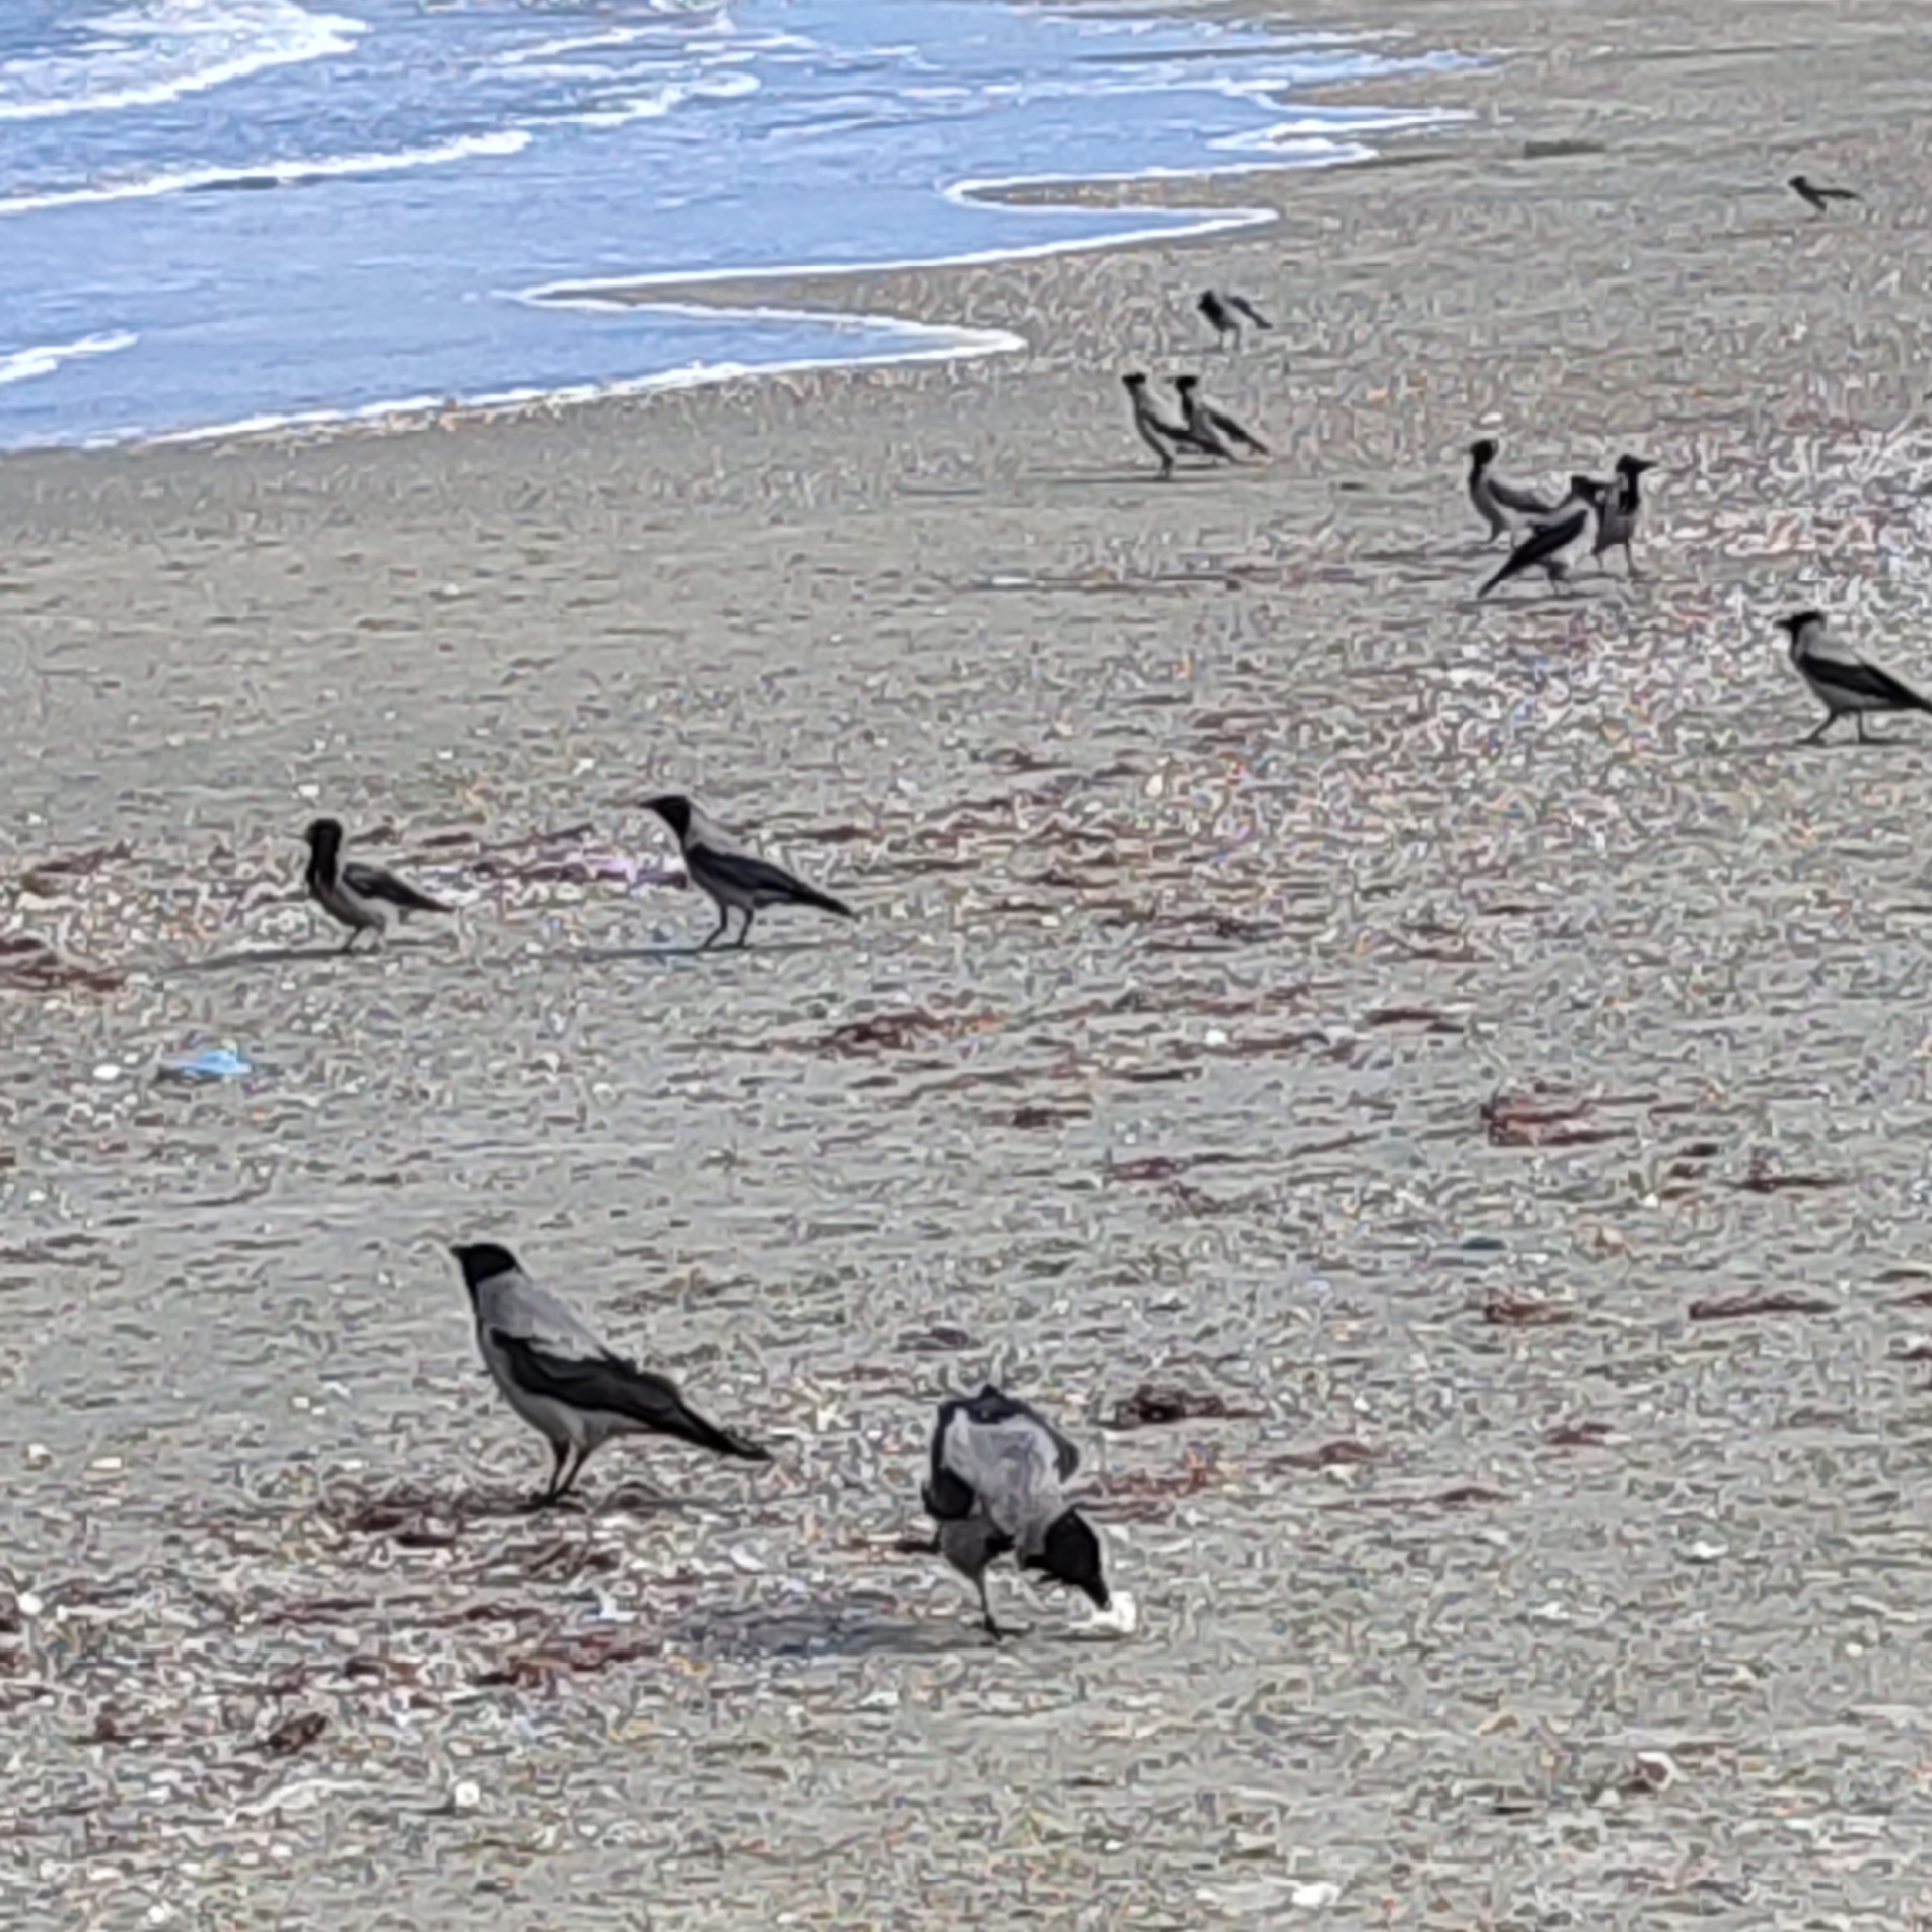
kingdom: Animalia
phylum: Chordata
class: Aves
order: Passeriformes
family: Corvidae
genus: Corvus
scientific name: Corvus cornix
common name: Hooded crow
